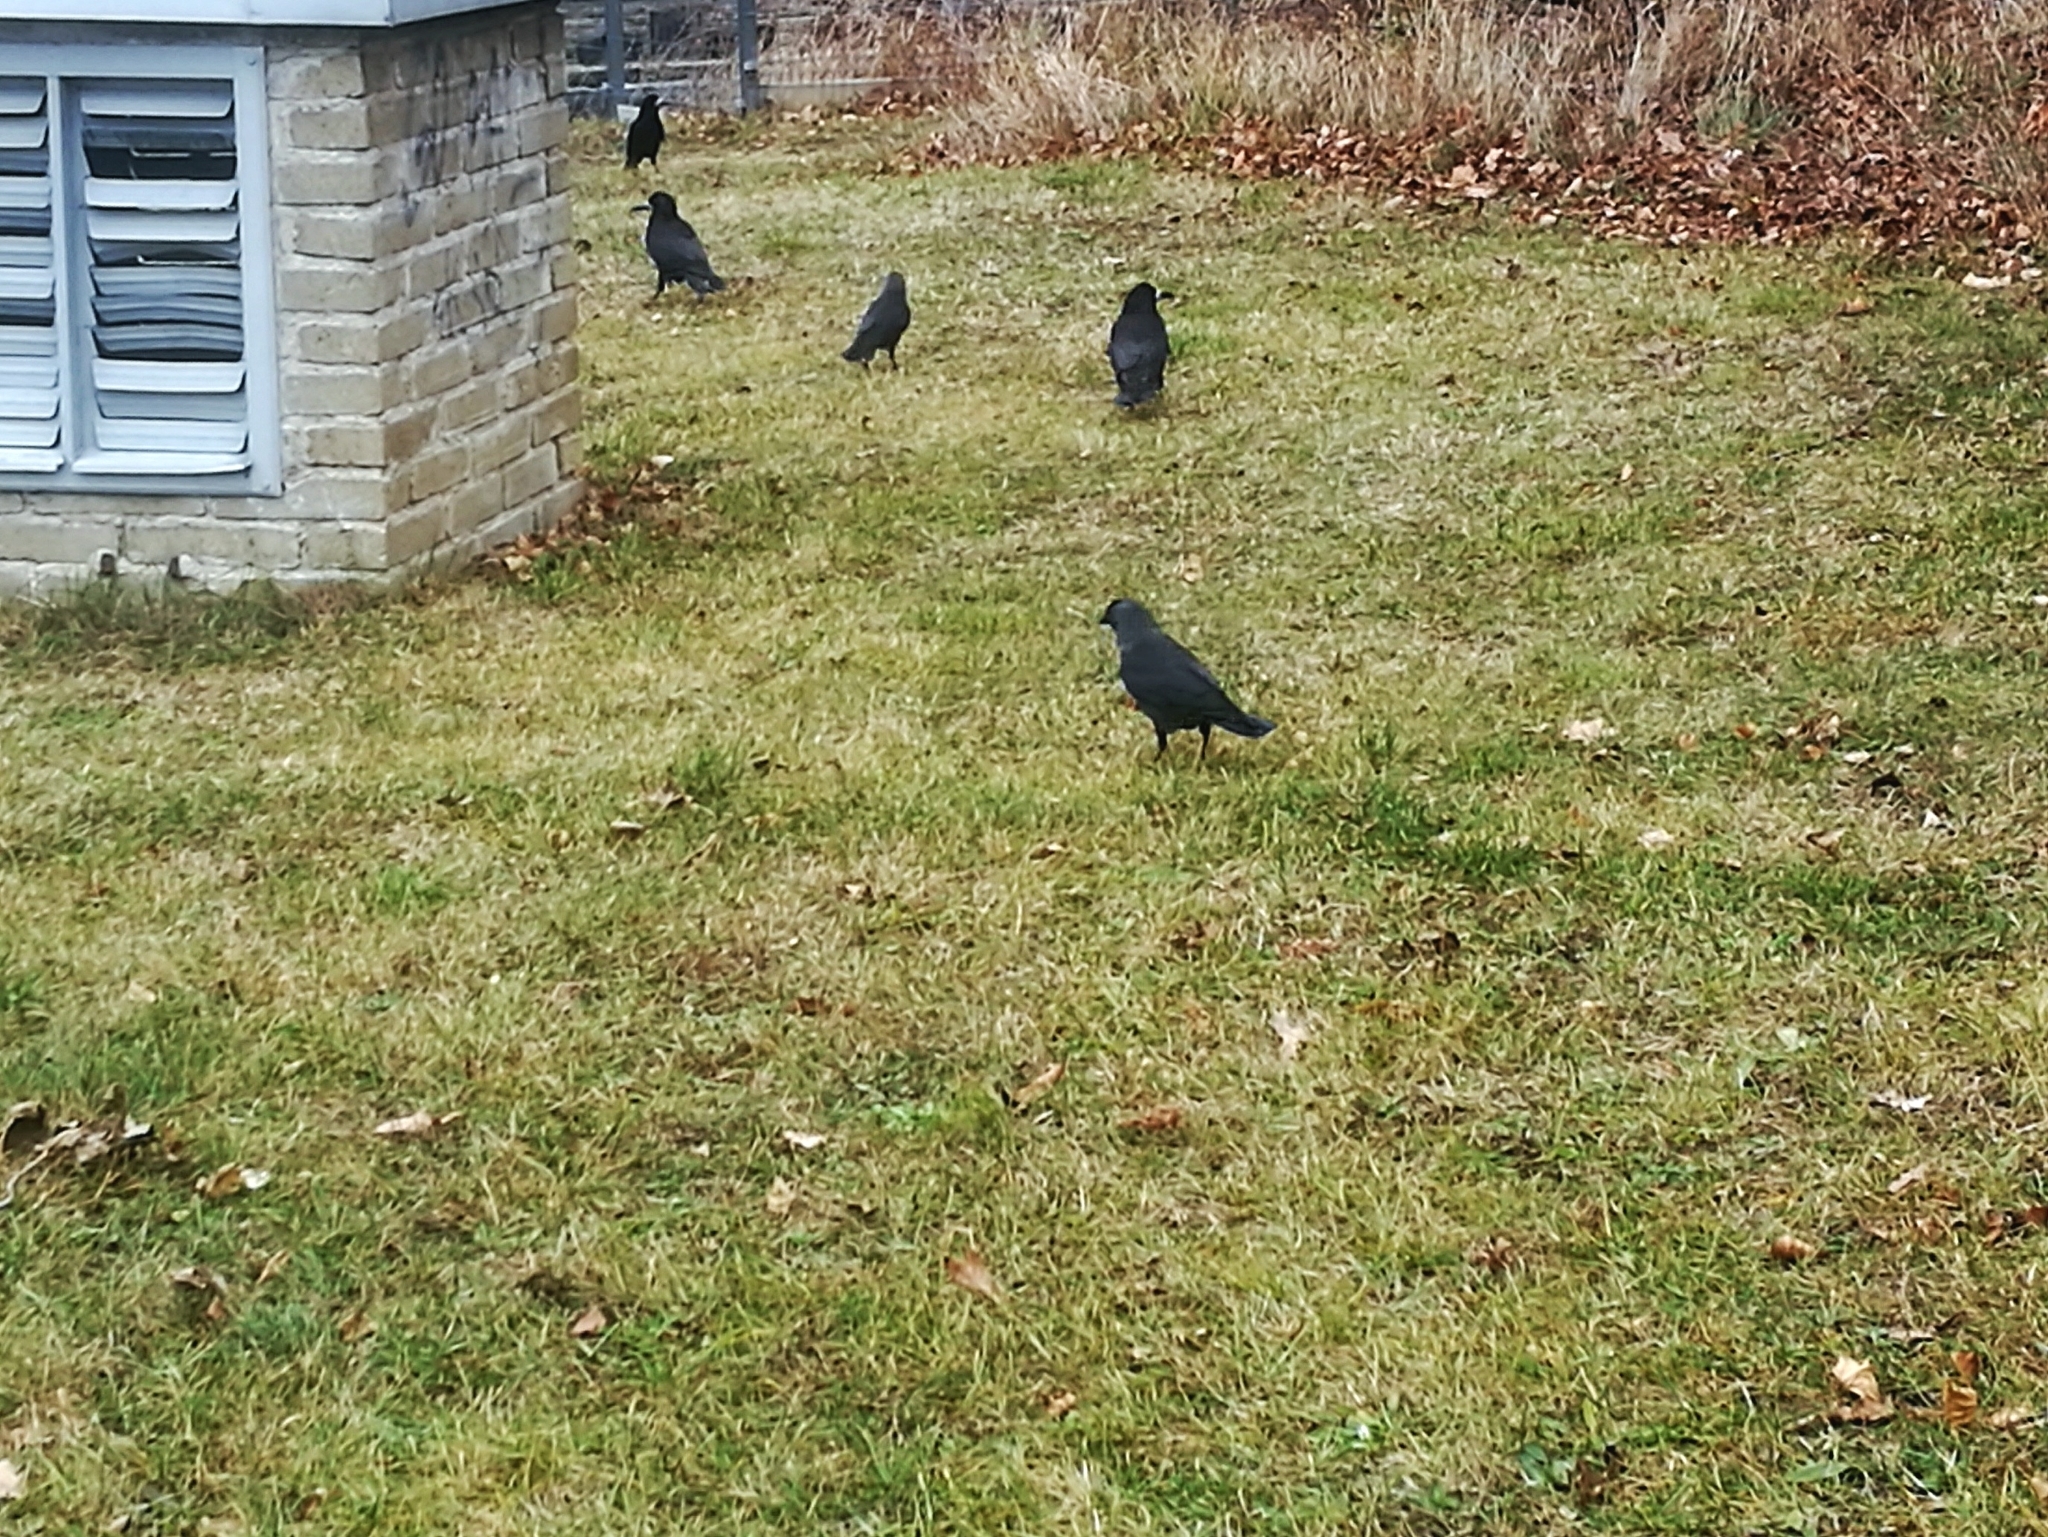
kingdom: Animalia
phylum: Chordata
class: Aves
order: Passeriformes
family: Corvidae
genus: Coloeus
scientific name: Coloeus monedula
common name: Western jackdaw
